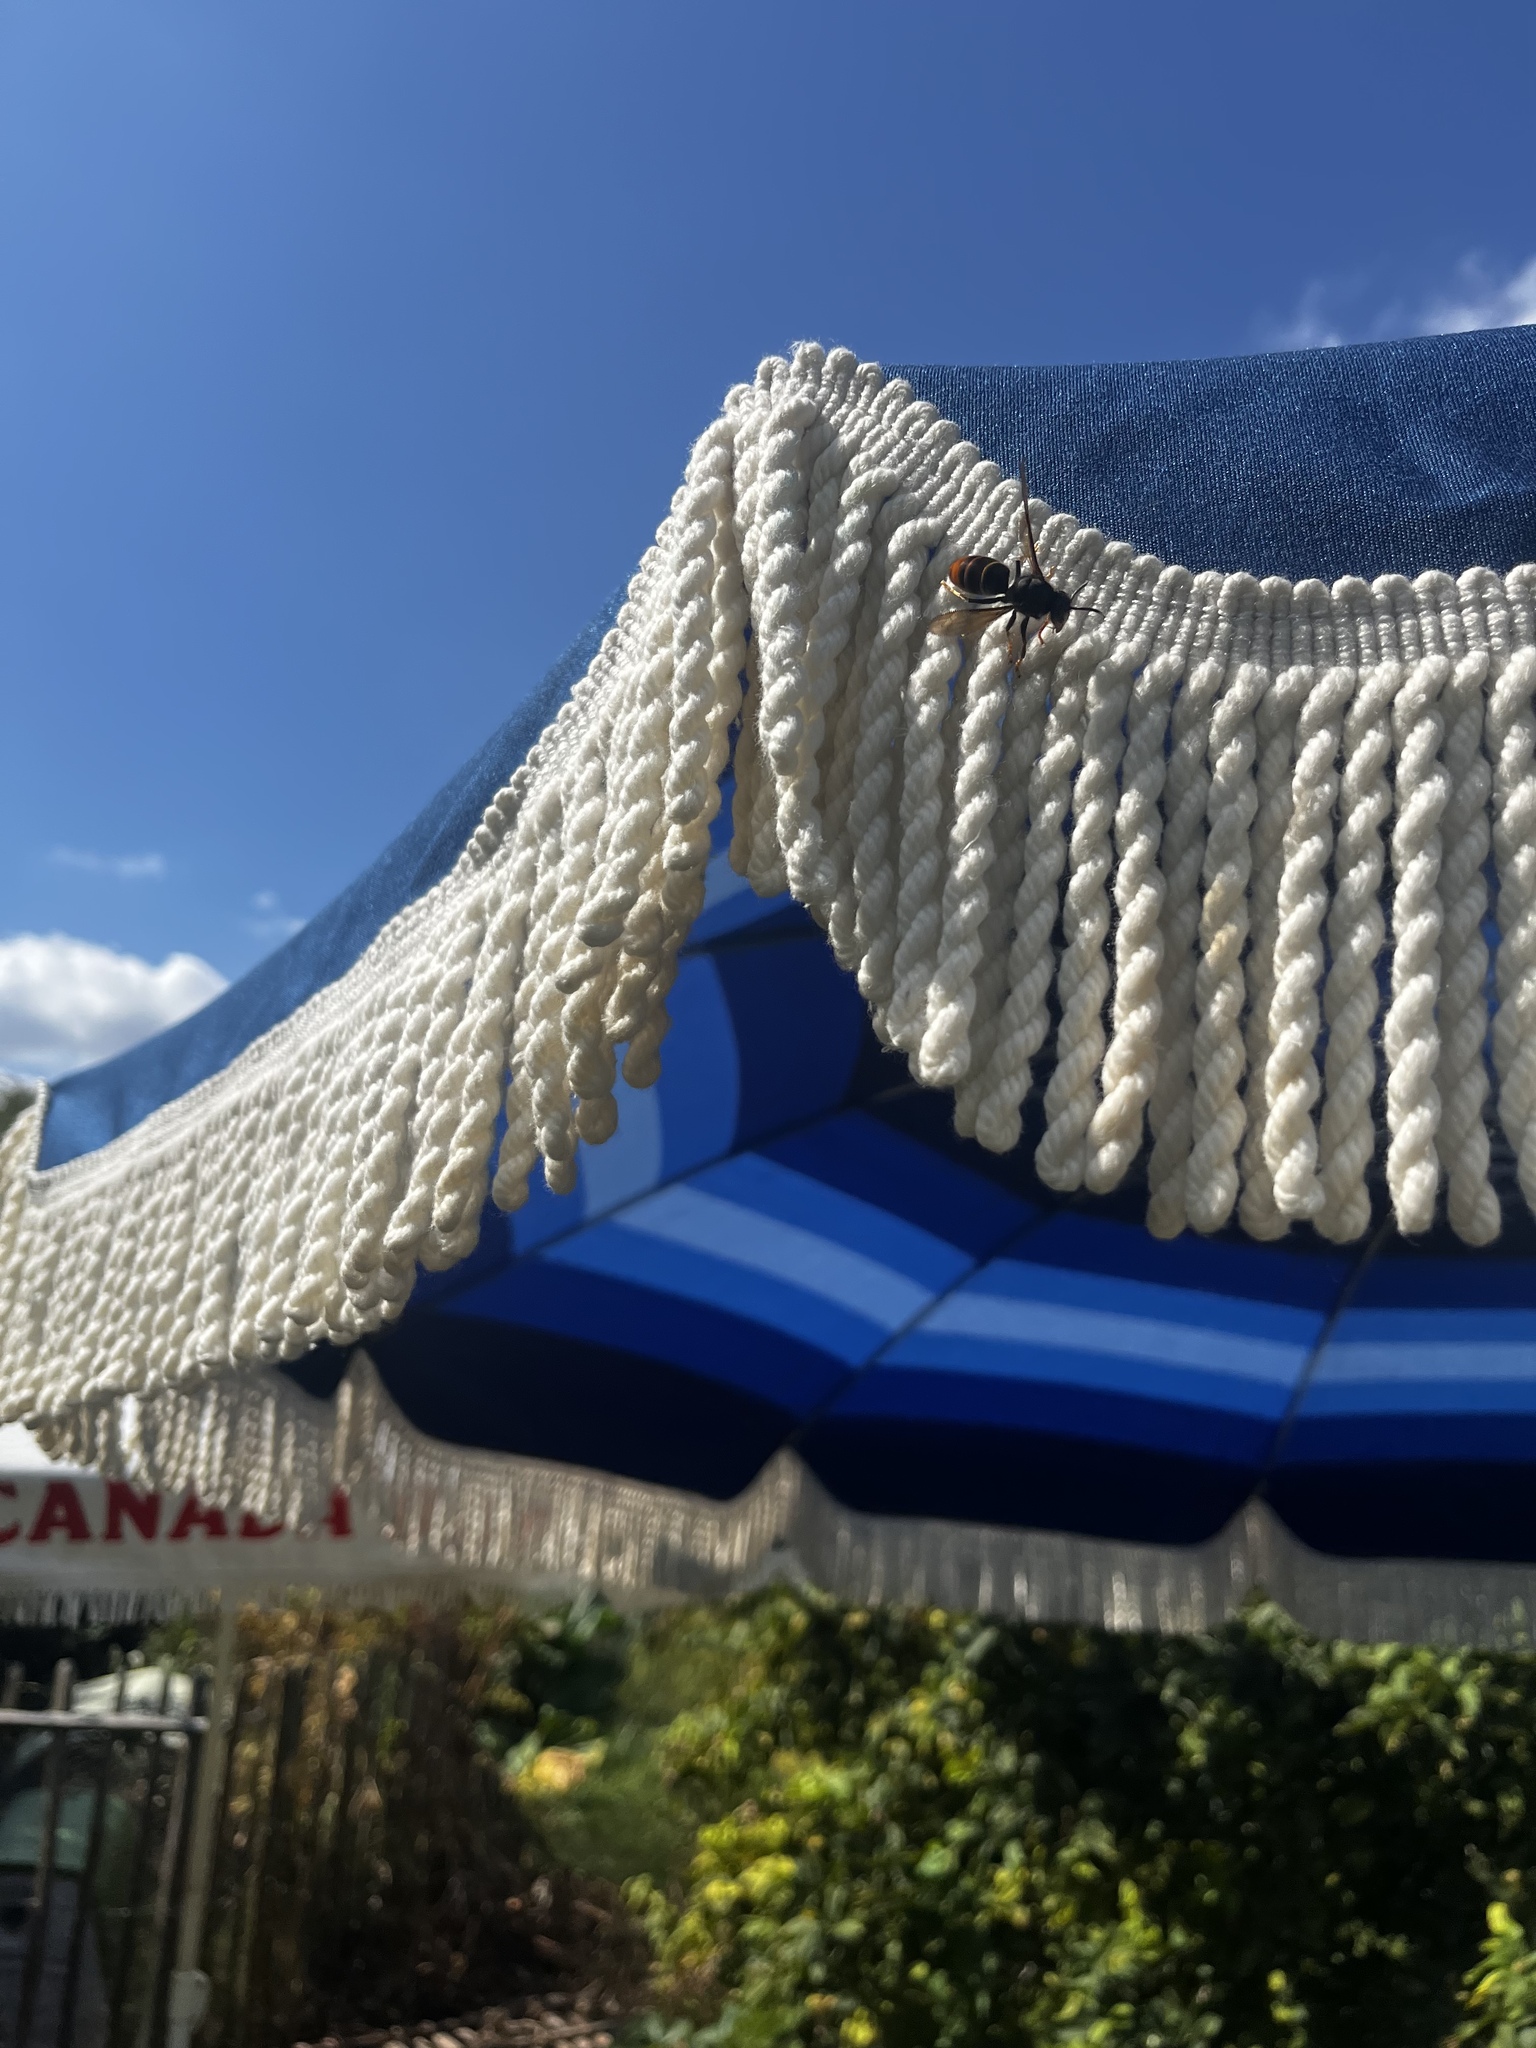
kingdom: Animalia
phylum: Arthropoda
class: Insecta
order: Hymenoptera
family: Vespidae
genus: Vespa
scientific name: Vespa velutina
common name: Asian hornet
